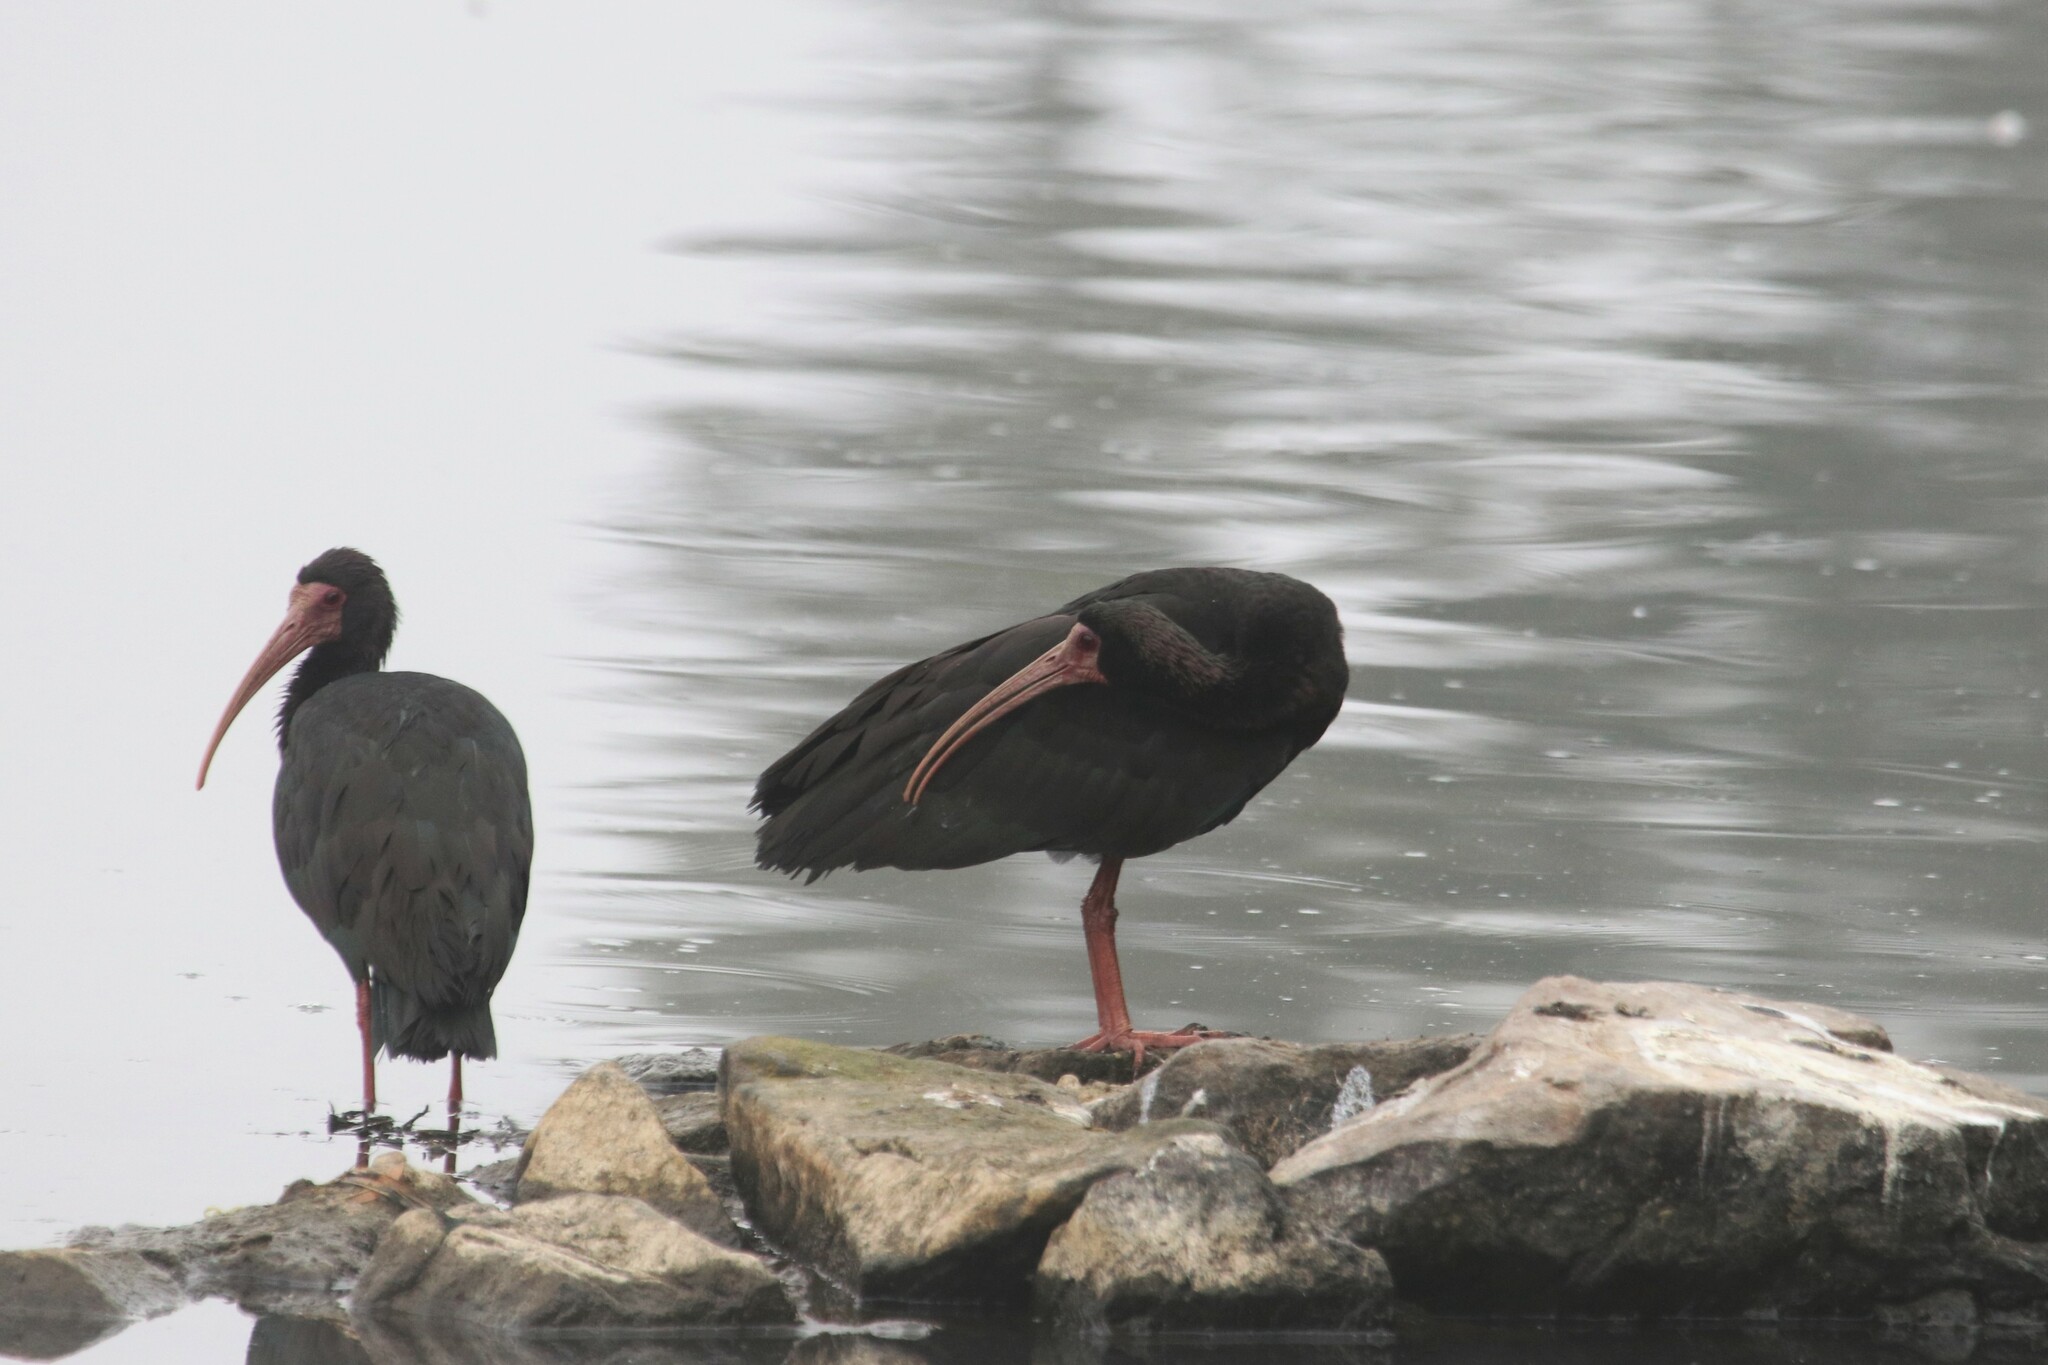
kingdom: Animalia
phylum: Chordata
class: Aves
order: Pelecaniformes
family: Threskiornithidae
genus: Phimosus
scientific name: Phimosus infuscatus
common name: Bare-faced ibis
